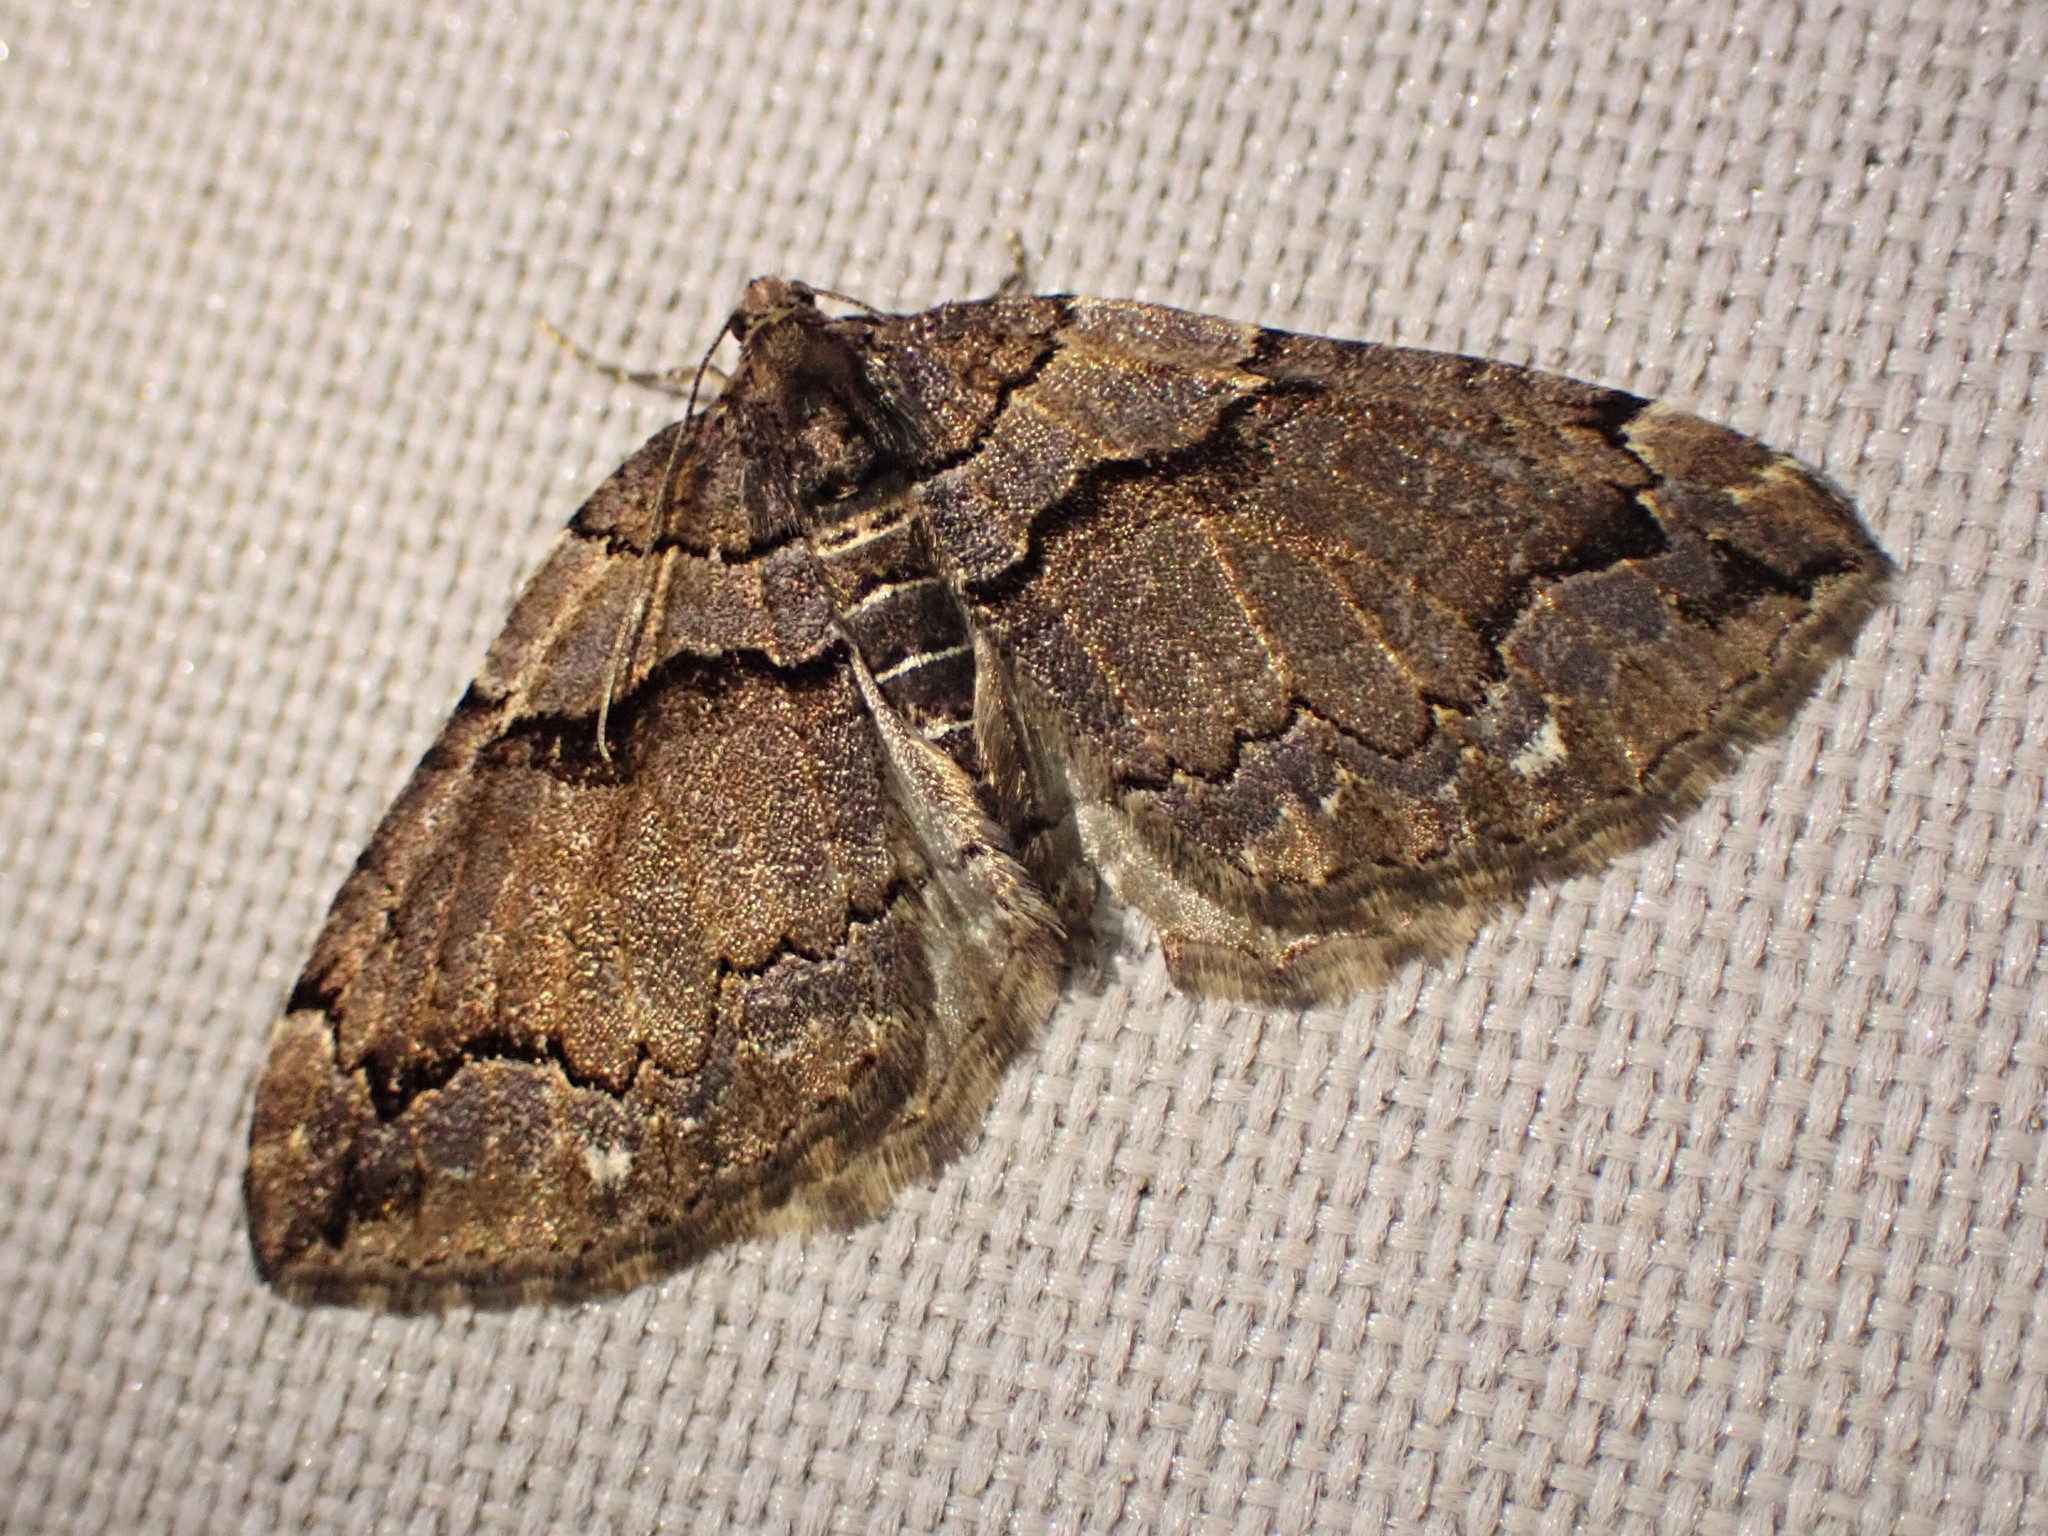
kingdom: Animalia
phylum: Arthropoda
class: Insecta
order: Lepidoptera
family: Geometridae
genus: Anticlea
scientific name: Anticlea vasiliata
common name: Variable carpet
